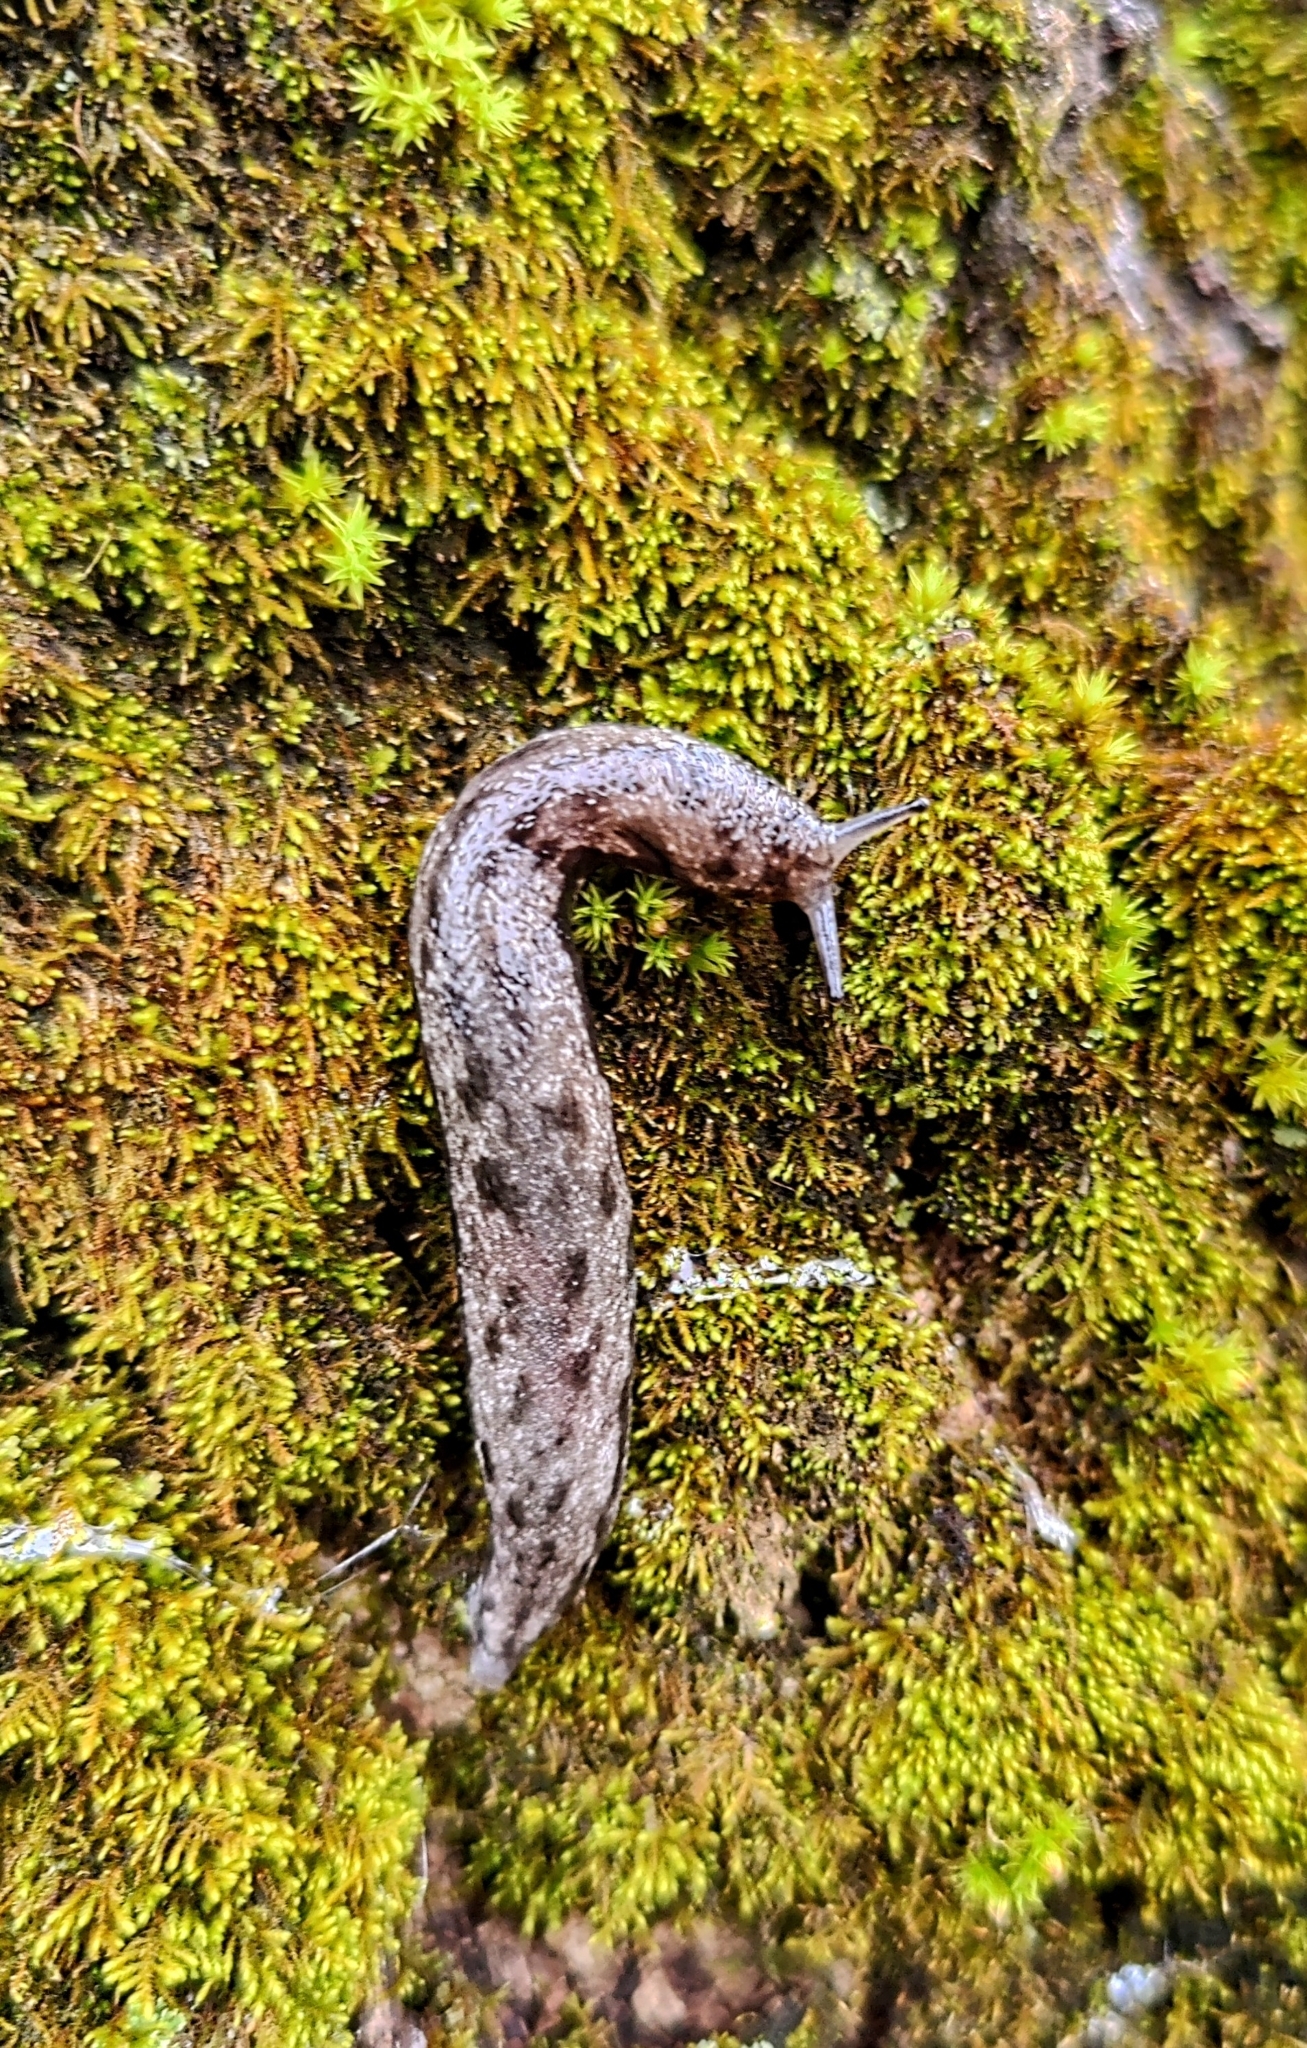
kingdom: Animalia
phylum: Mollusca
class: Gastropoda
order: Stylommatophora
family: Philomycidae
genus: Megapallifera
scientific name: Megapallifera mutabilis
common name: Changeable mantleslug
